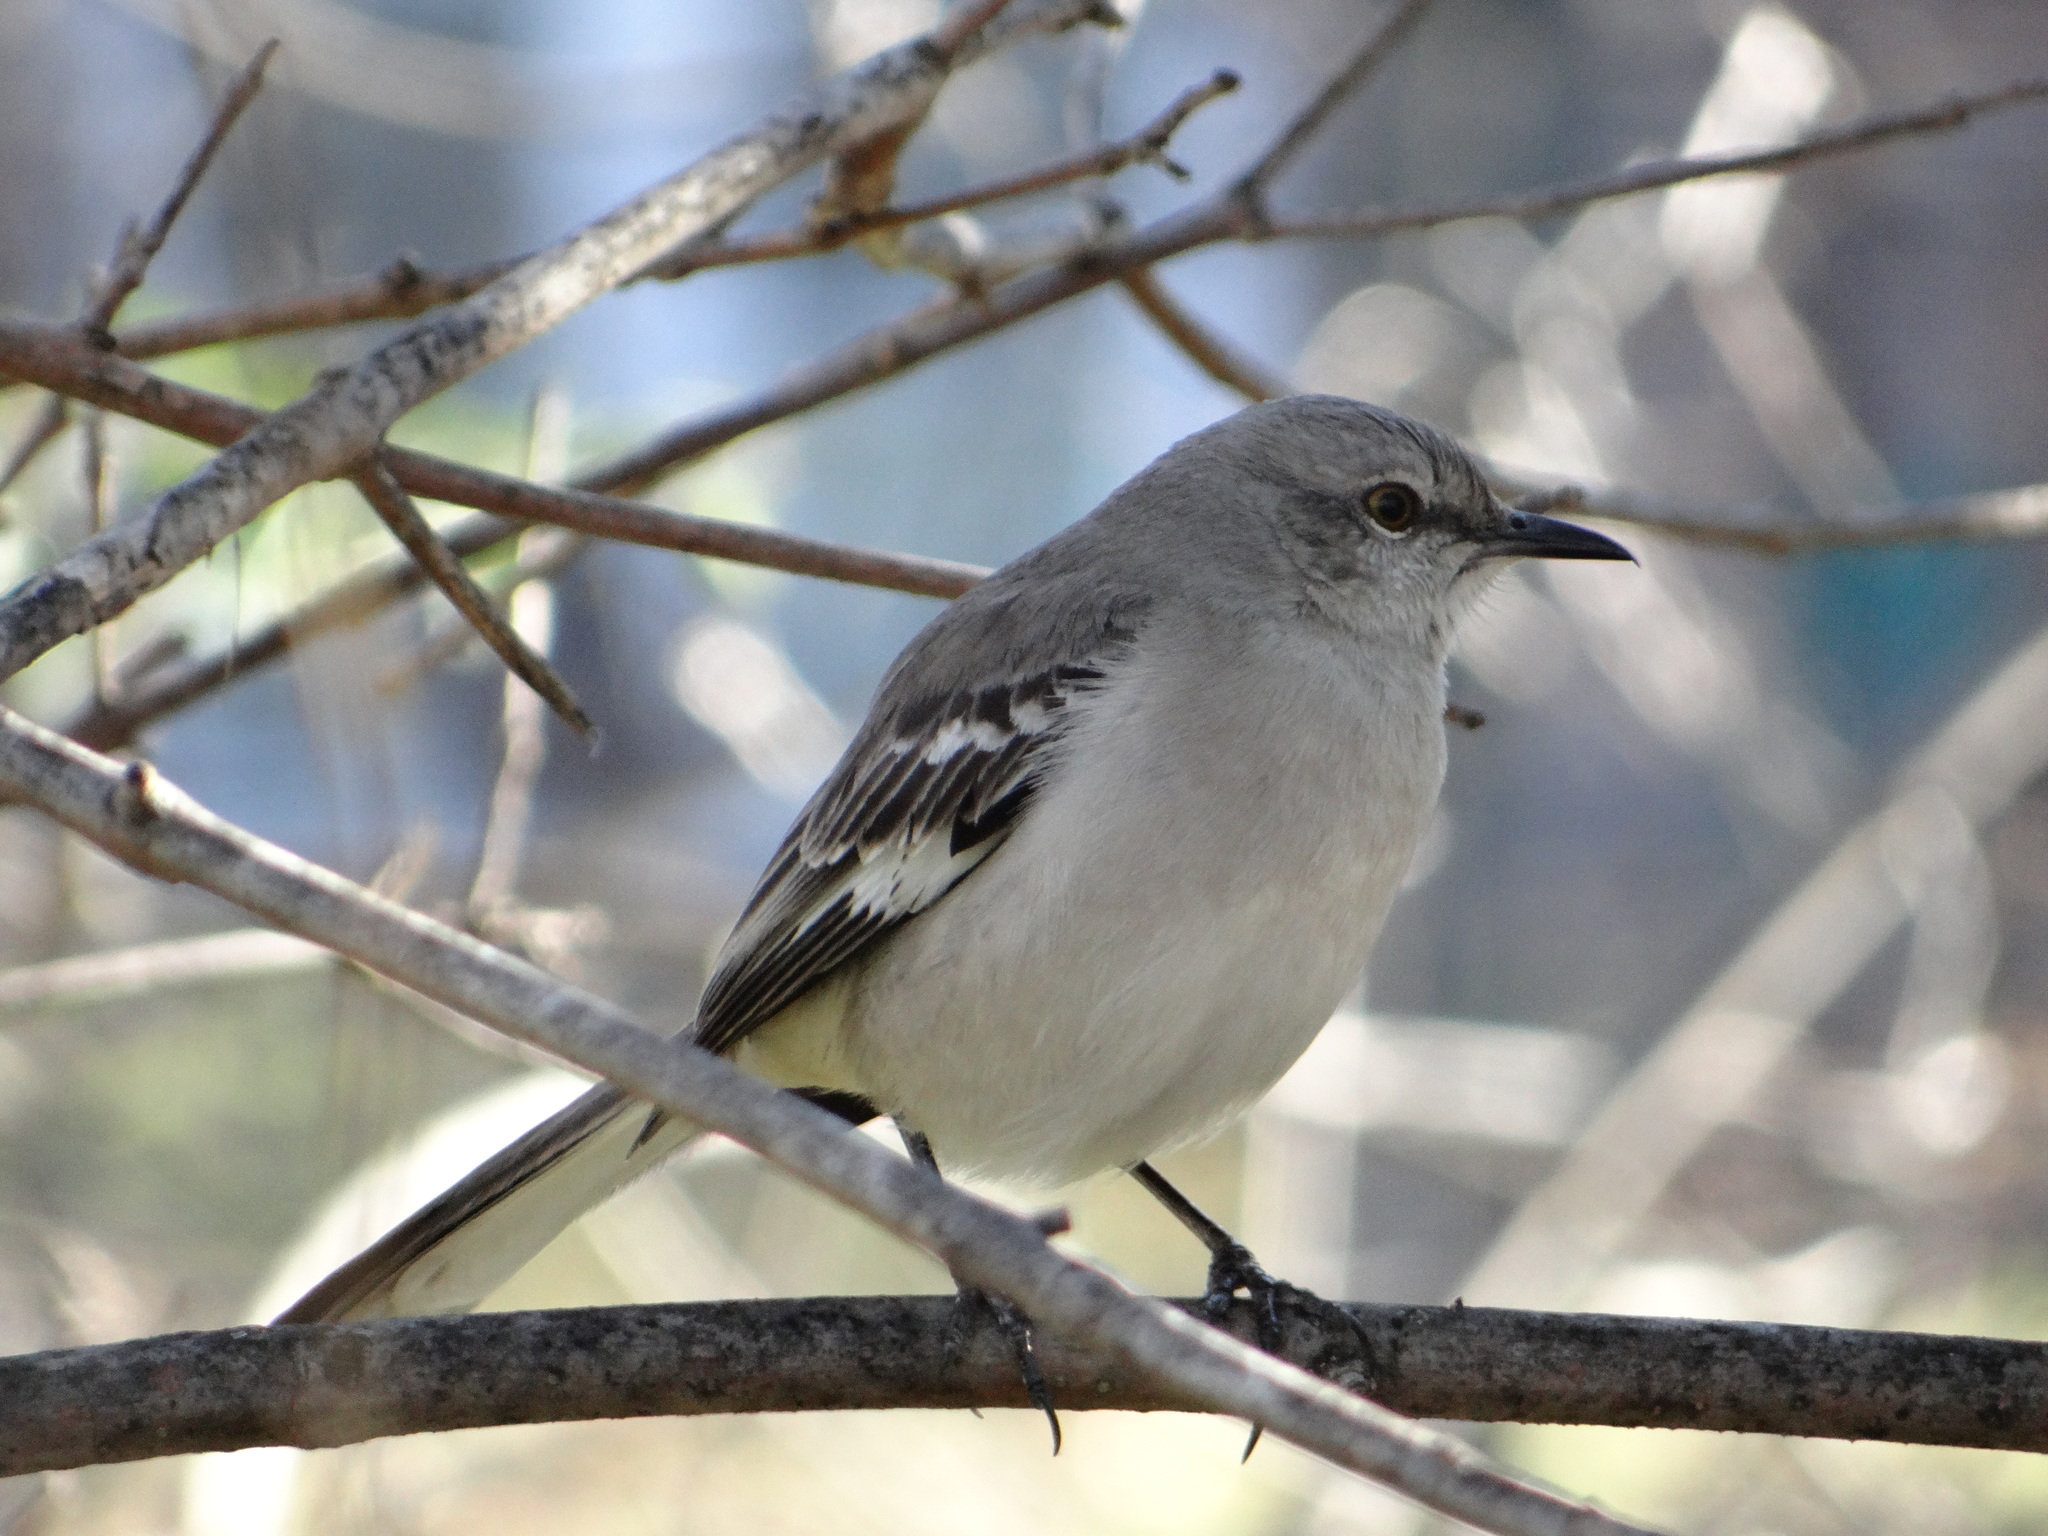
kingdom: Animalia
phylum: Chordata
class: Aves
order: Passeriformes
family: Mimidae
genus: Mimus
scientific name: Mimus polyglottos
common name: Northern mockingbird
